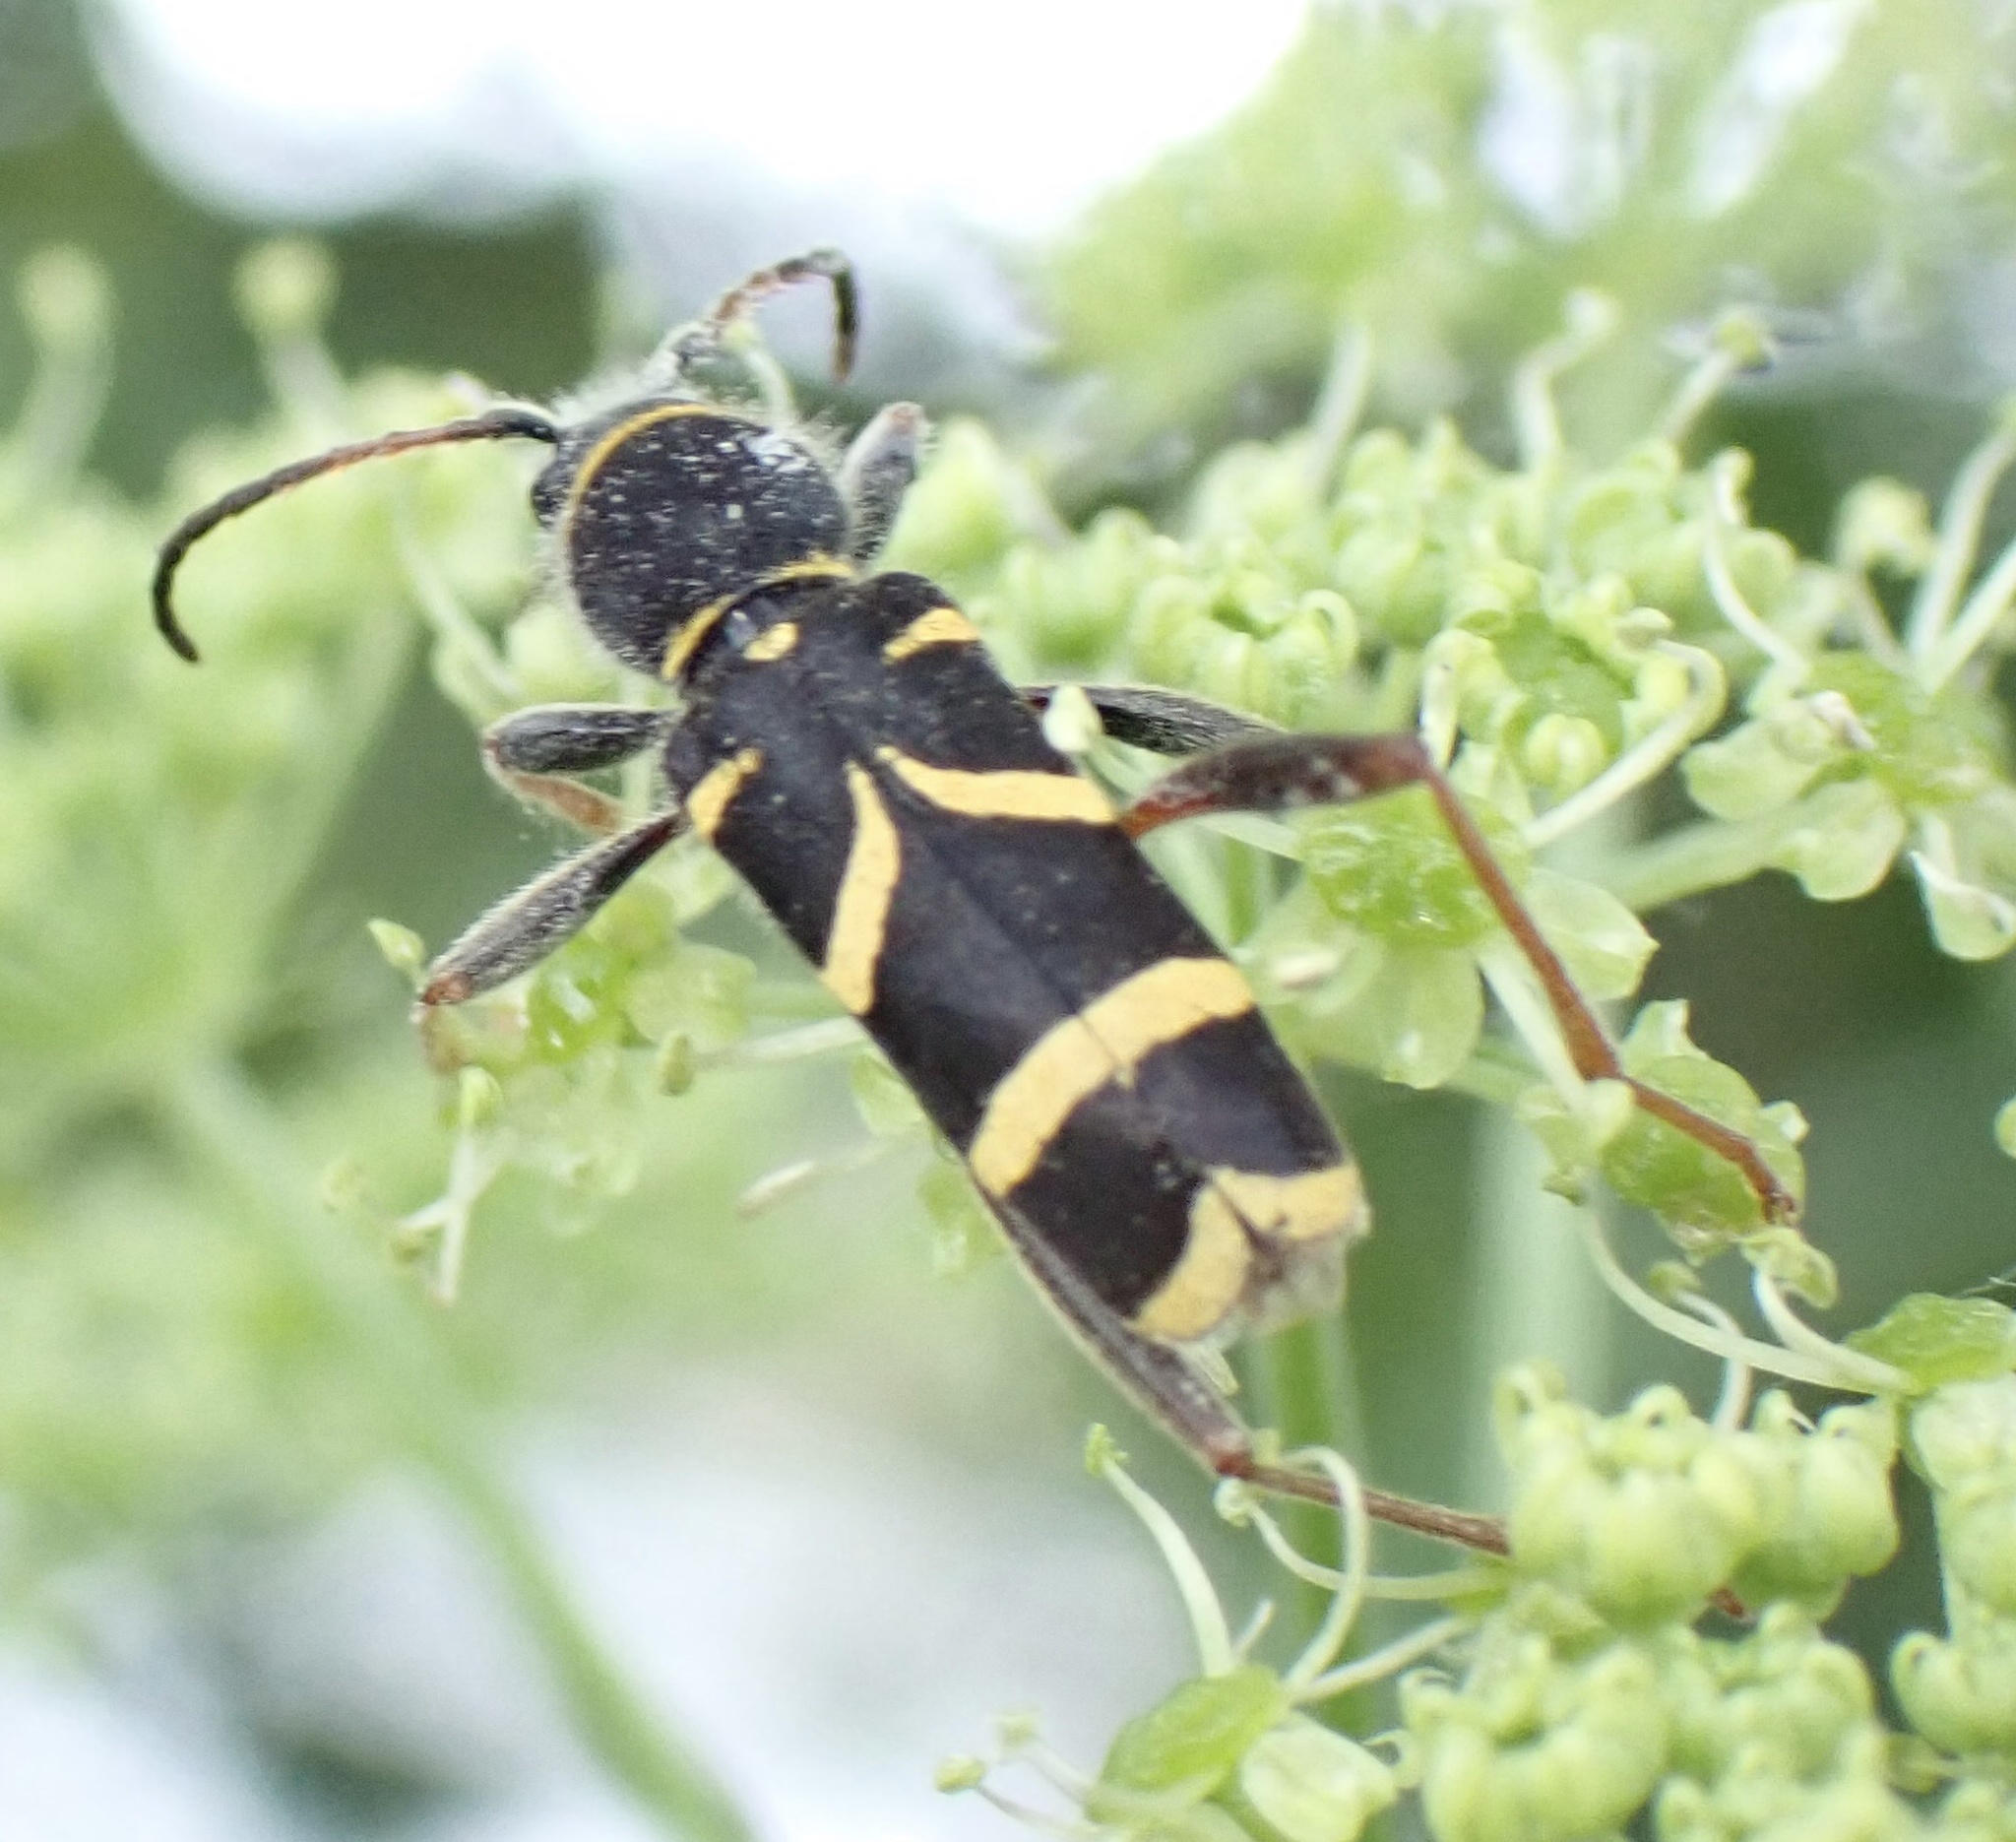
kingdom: Animalia
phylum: Arthropoda
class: Insecta
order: Coleoptera
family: Cerambycidae
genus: Clytus
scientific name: Clytus arietis
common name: Wasp beetle
